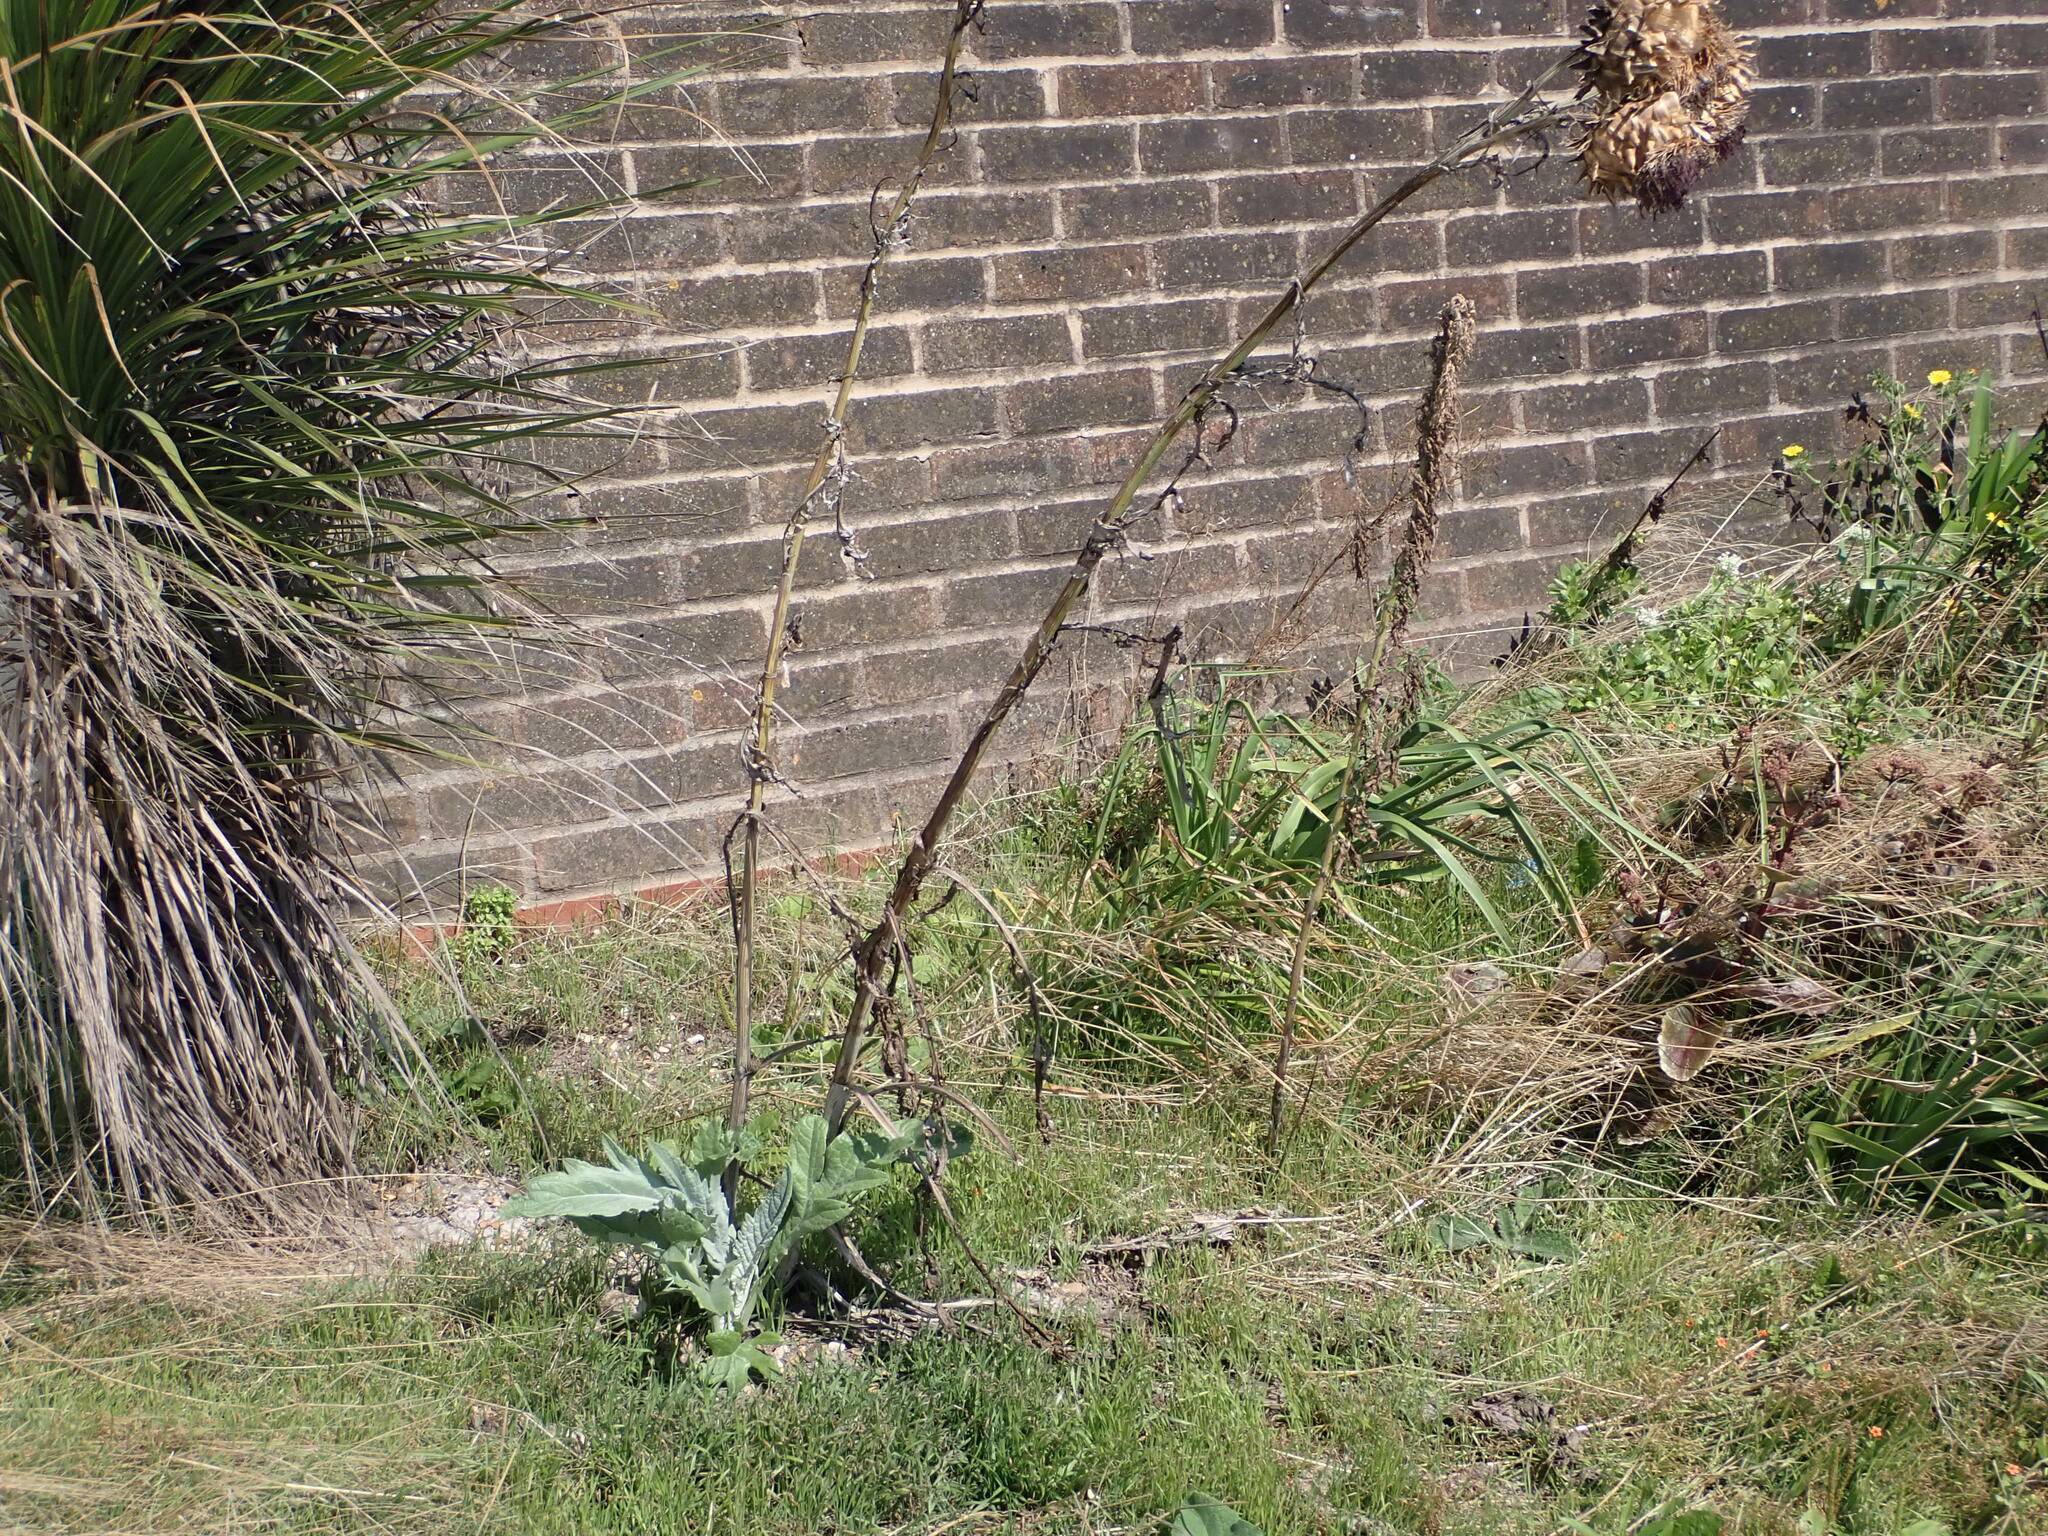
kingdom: Plantae
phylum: Tracheophyta
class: Magnoliopsida
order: Asterales
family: Asteraceae
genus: Cynara
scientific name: Cynara cardunculus
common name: Globe artichoke
